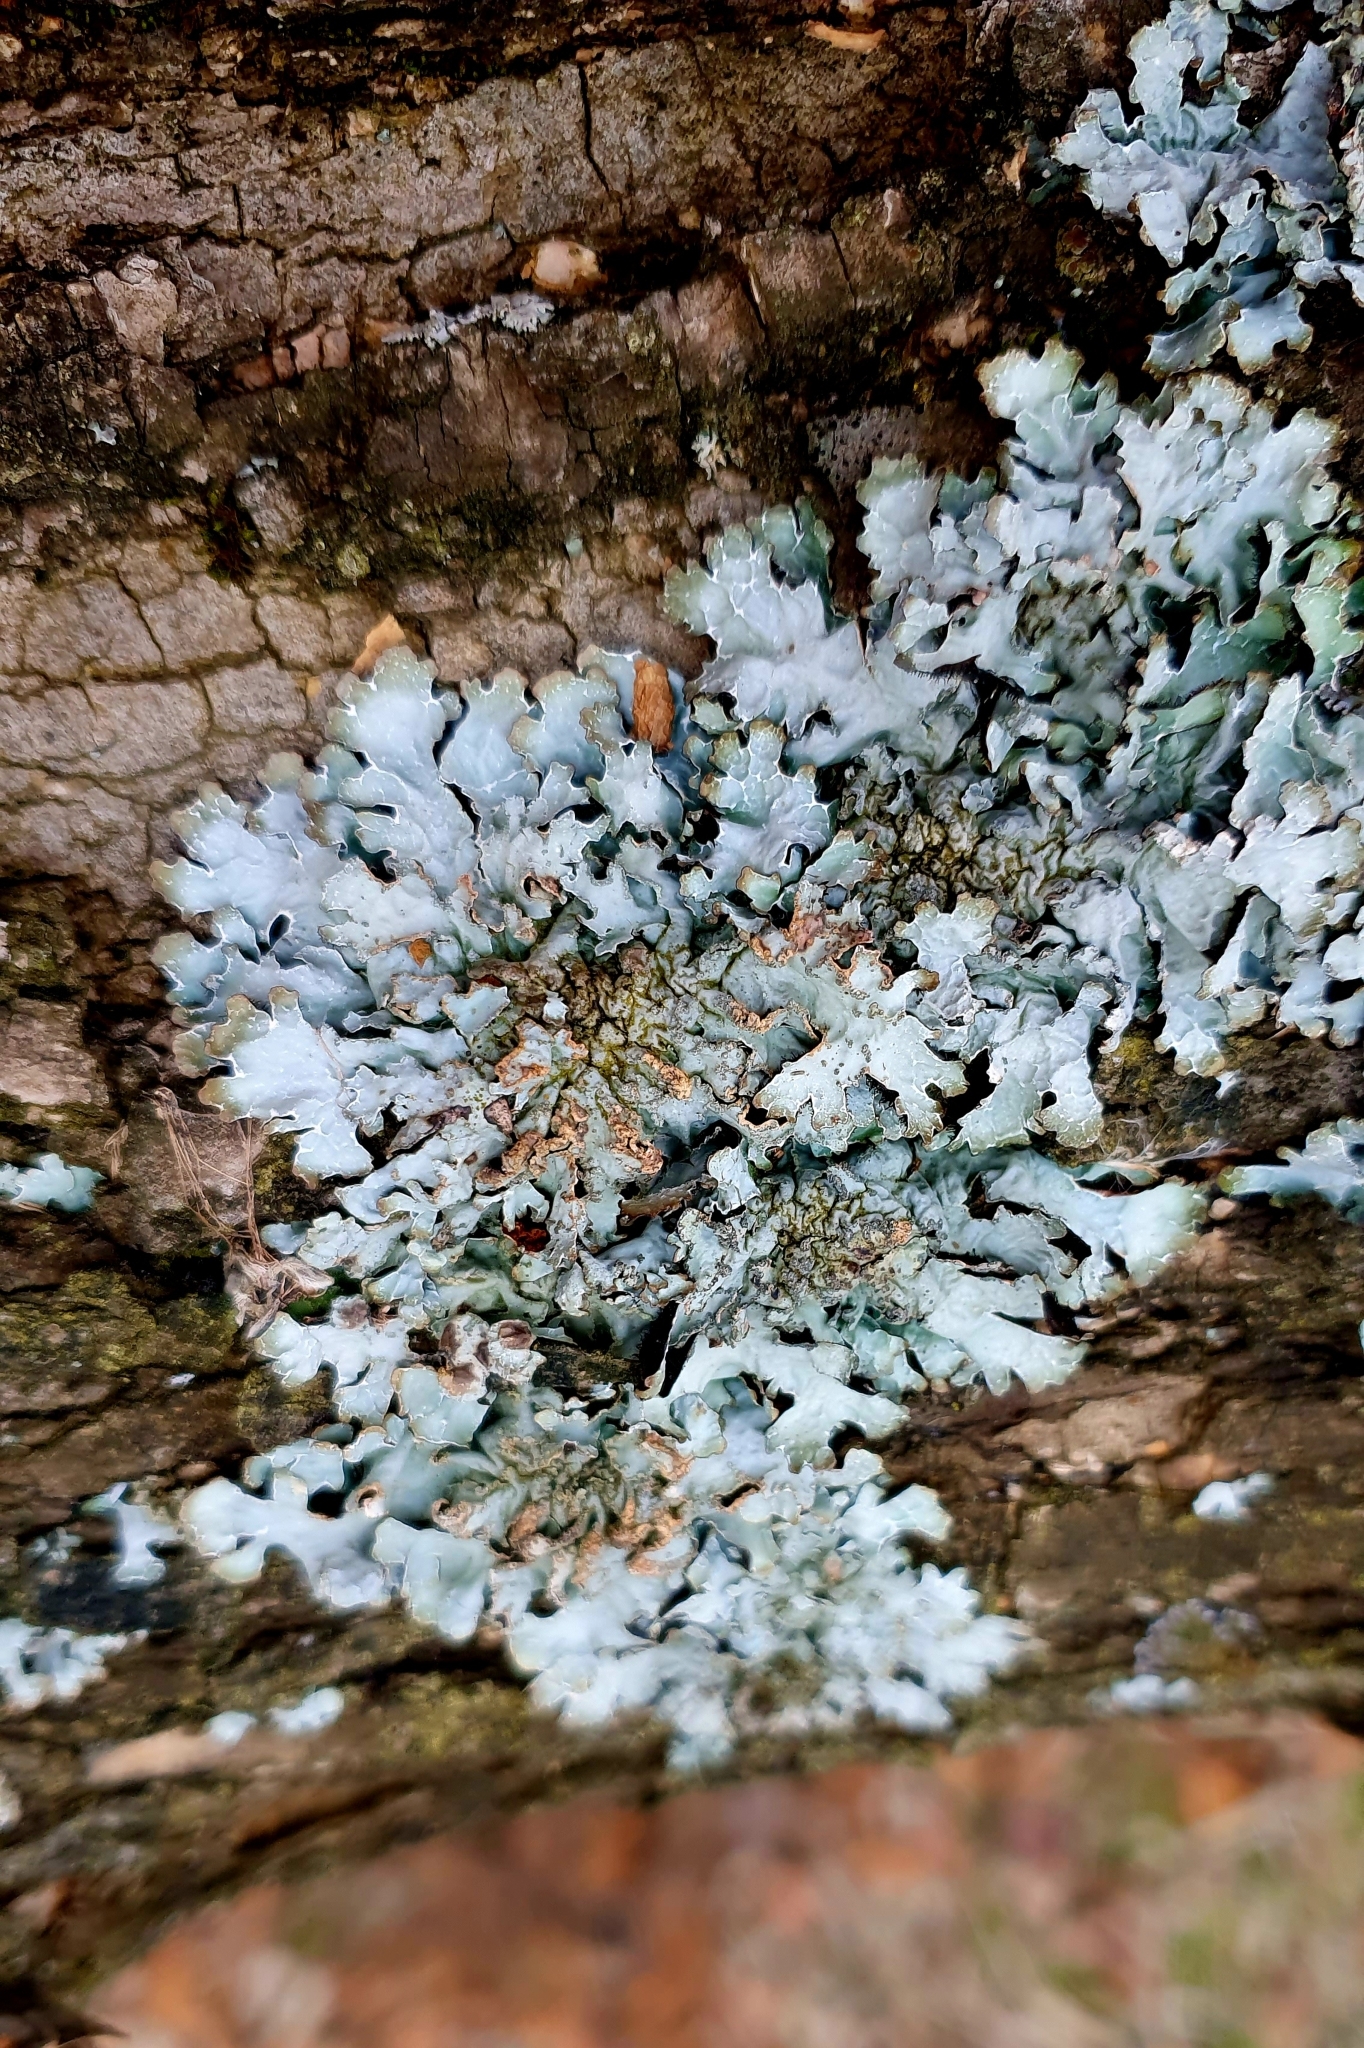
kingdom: Fungi
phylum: Ascomycota
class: Lecanoromycetes
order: Lecanorales
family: Parmeliaceae
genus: Parmelia
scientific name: Parmelia sulcata
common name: Netted shield lichen
